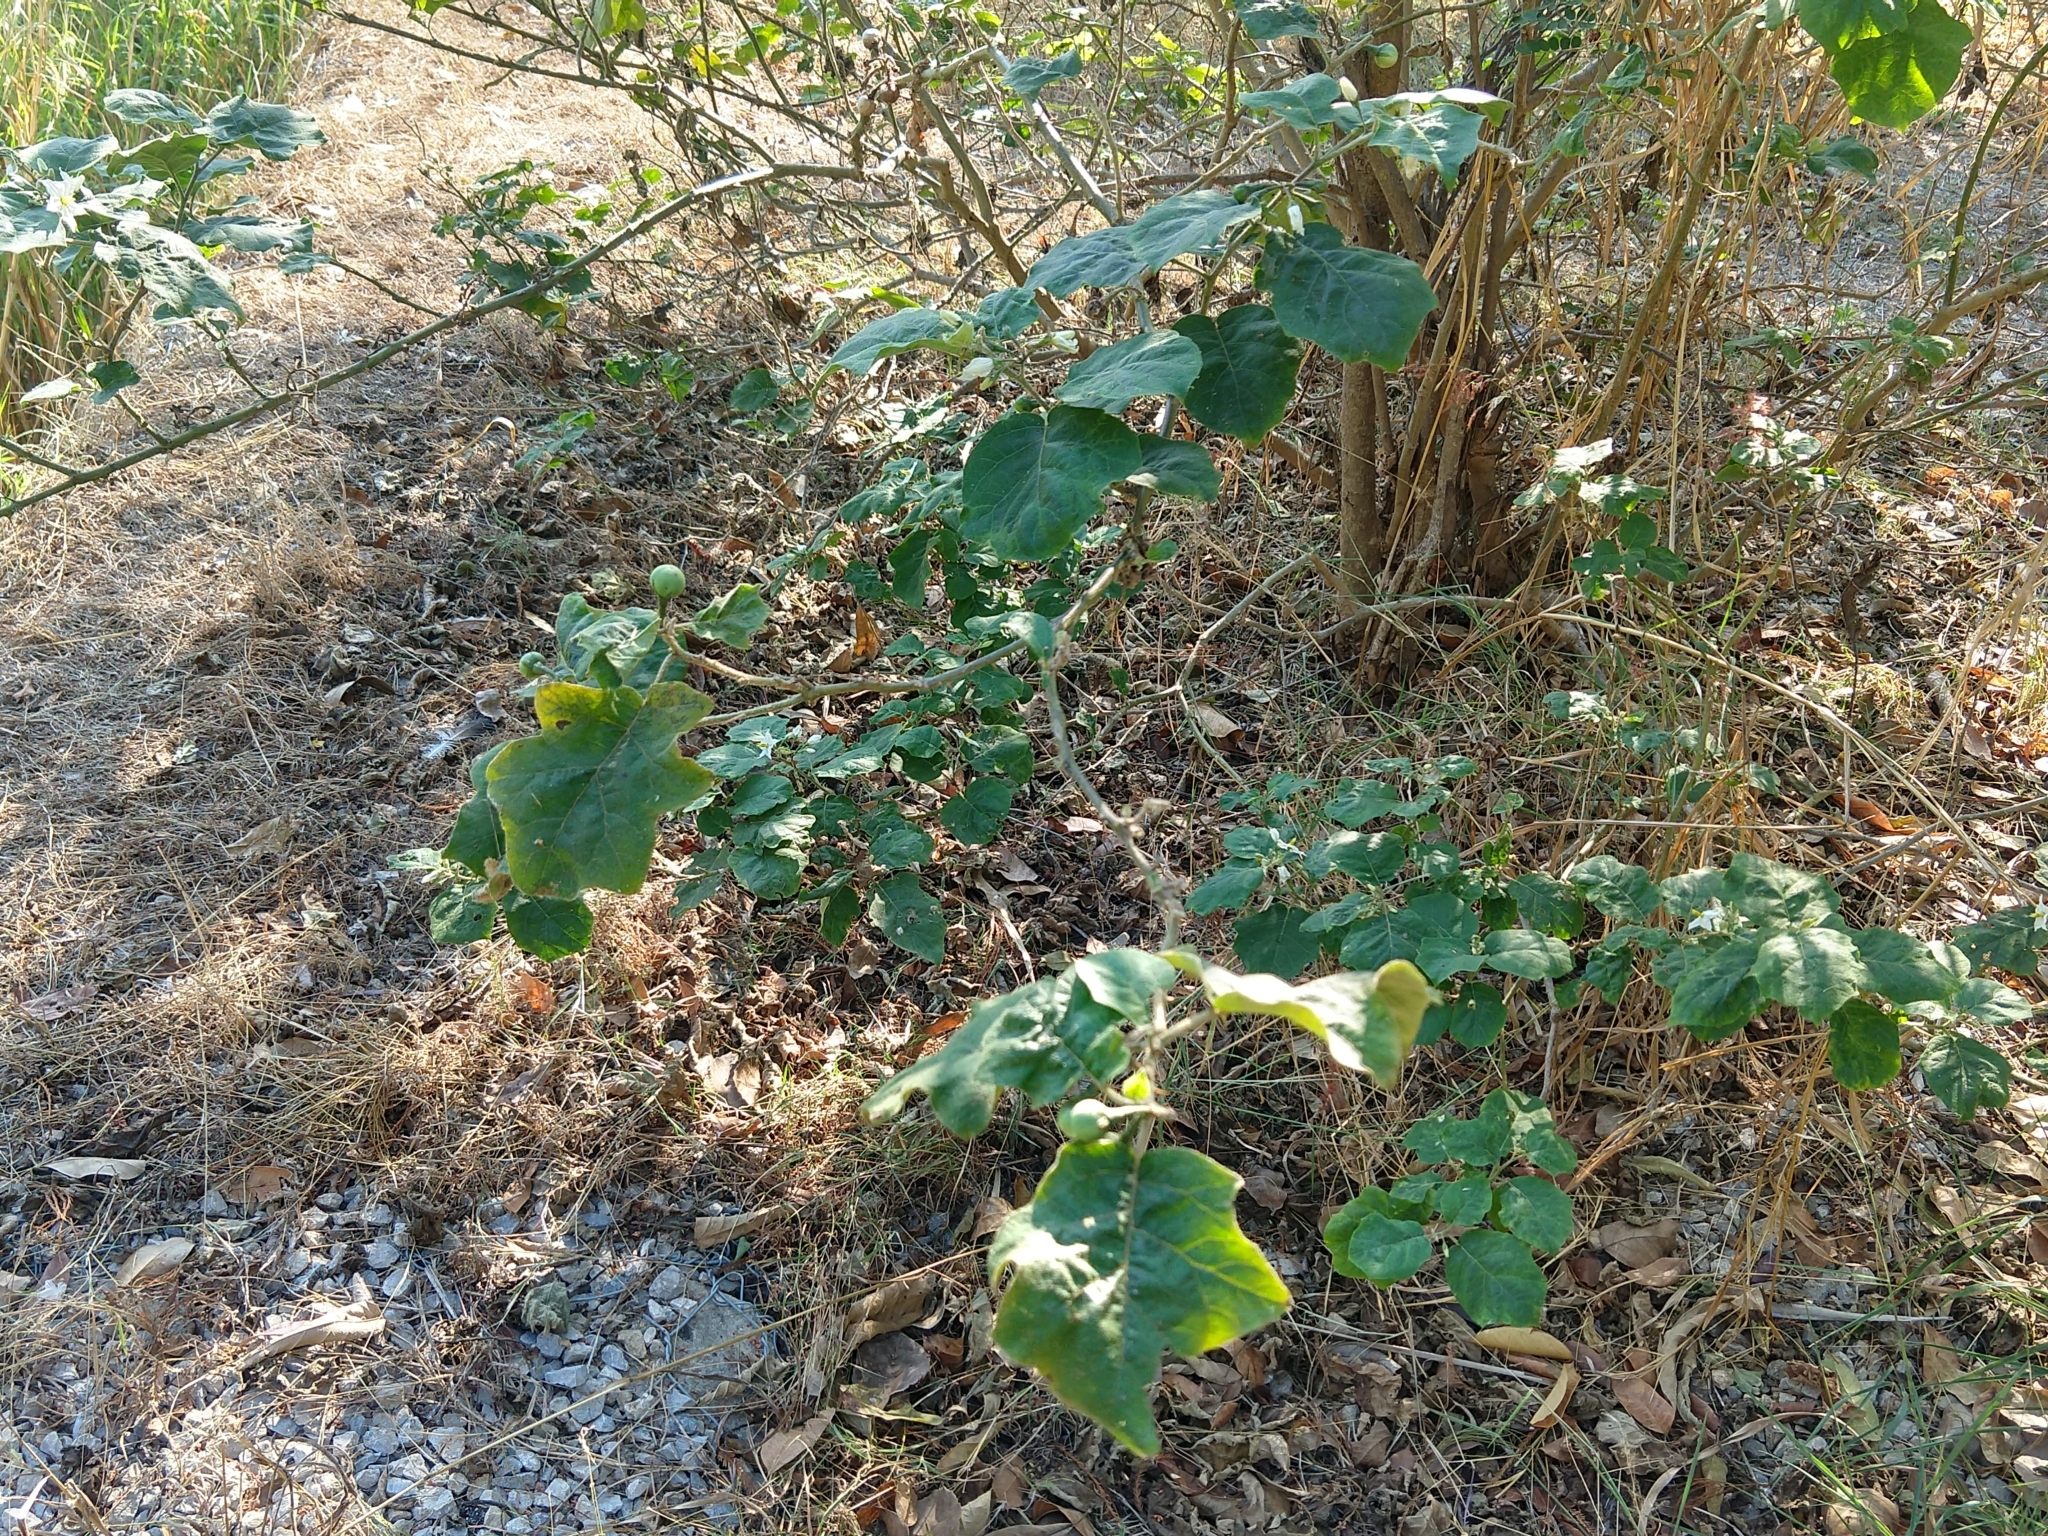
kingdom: Plantae
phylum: Tracheophyta
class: Magnoliopsida
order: Solanales
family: Solanaceae
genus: Solanum
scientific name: Solanum torvum
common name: Turkey berry
